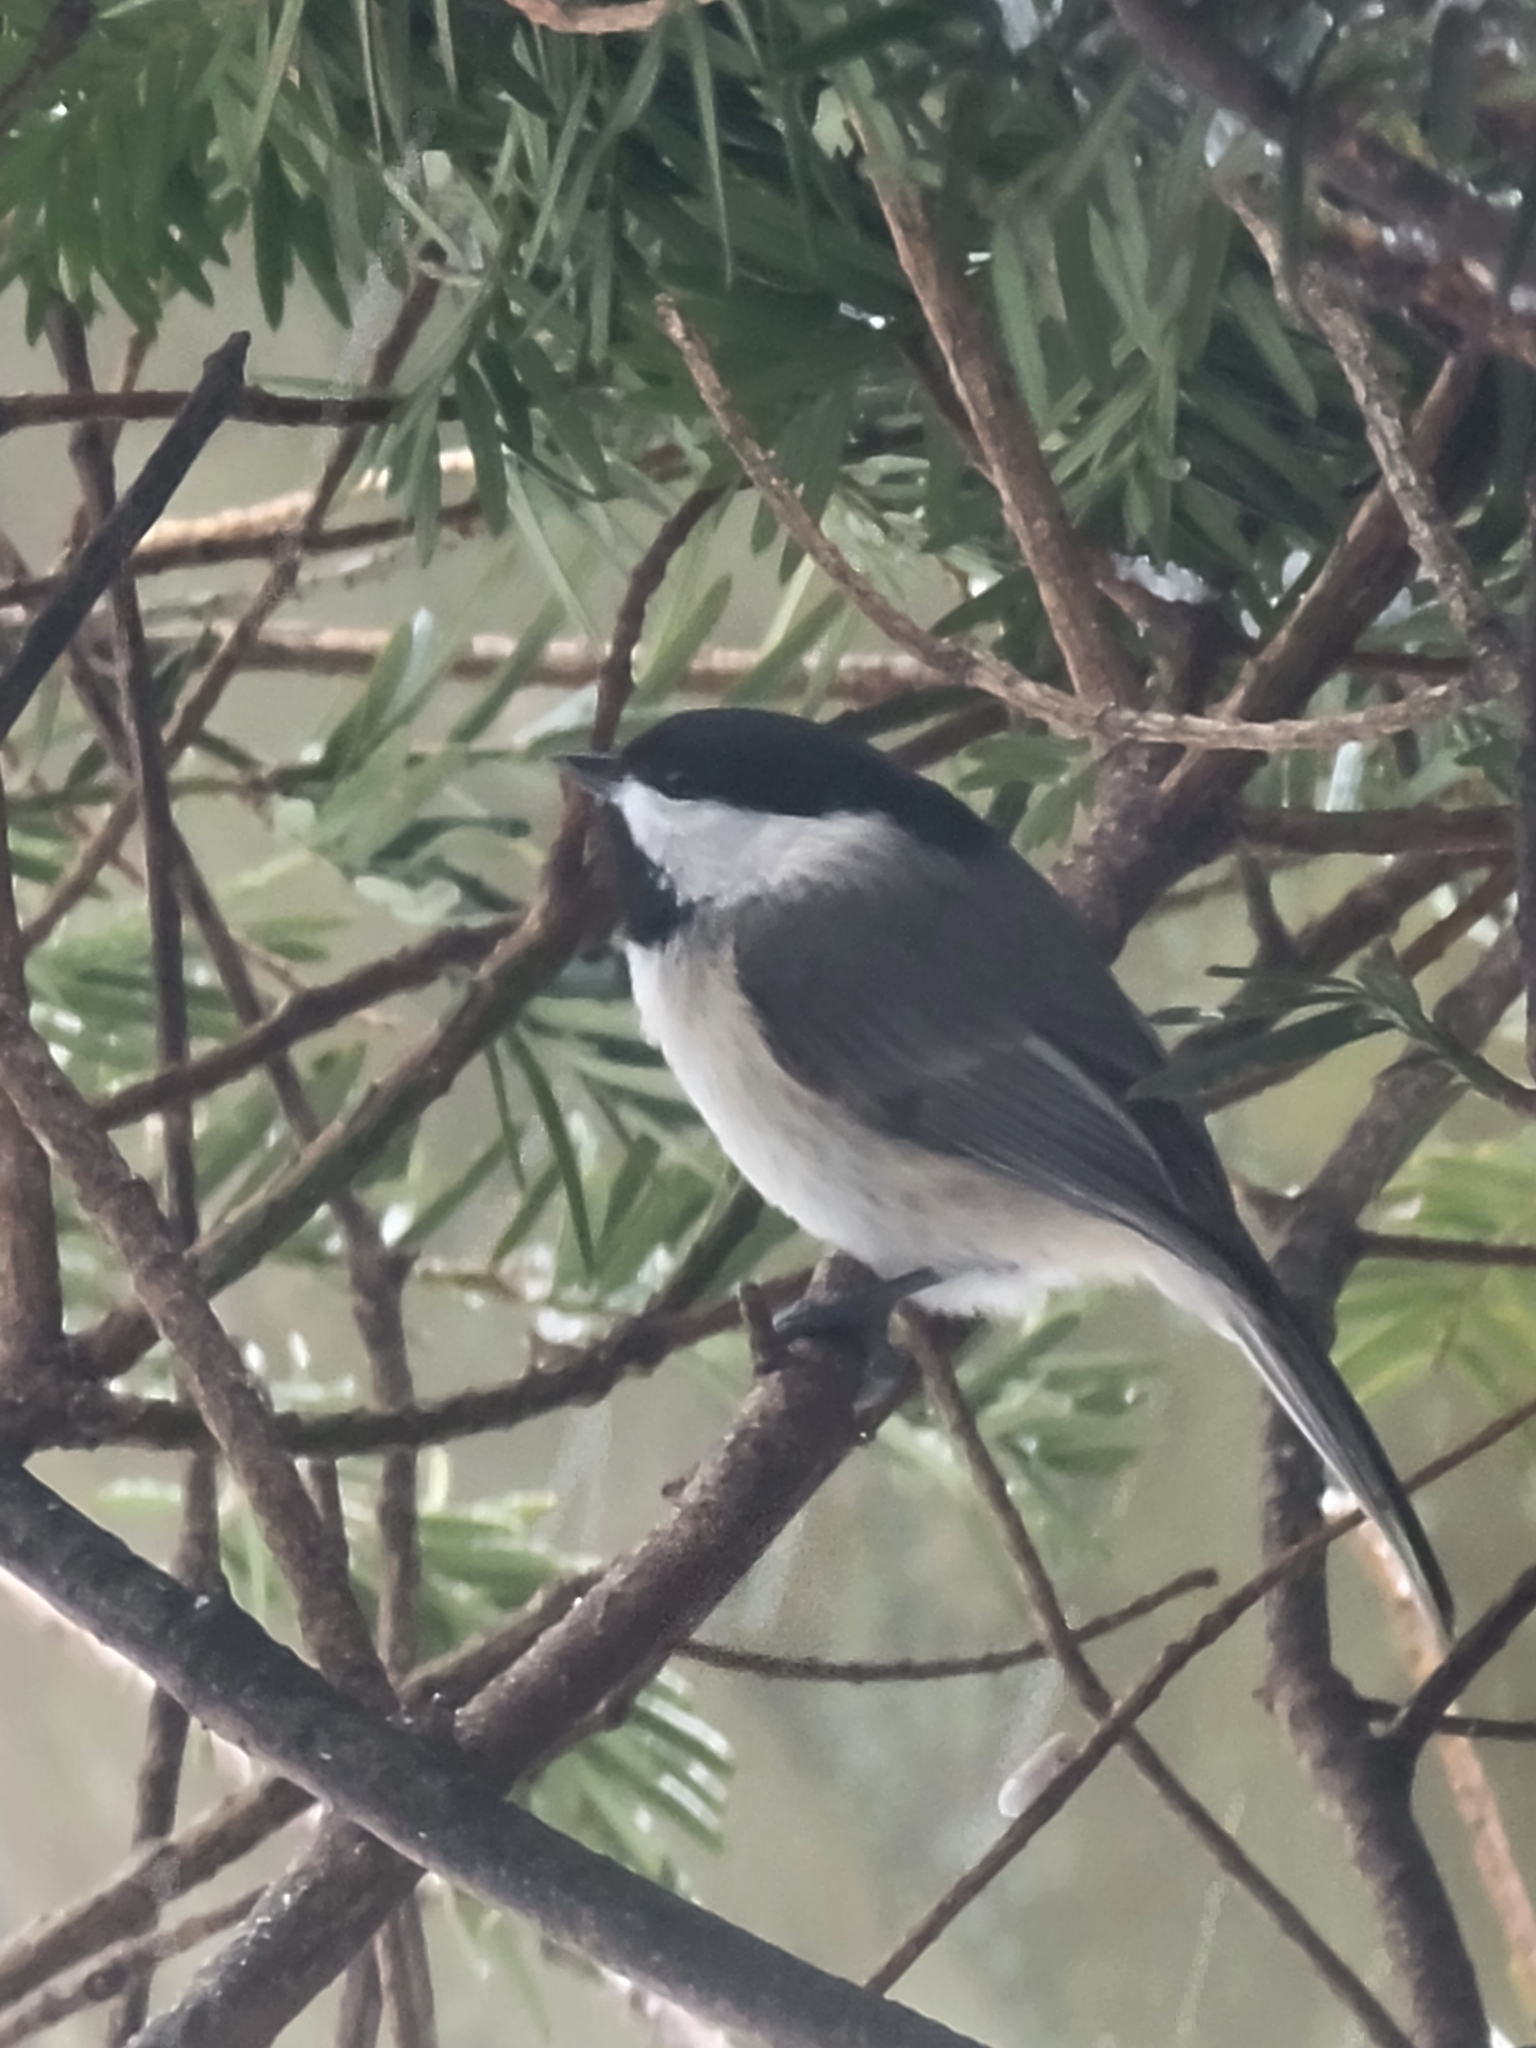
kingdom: Animalia
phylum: Chordata
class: Aves
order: Passeriformes
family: Paridae
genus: Poecile
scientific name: Poecile carolinensis
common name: Carolina chickadee
